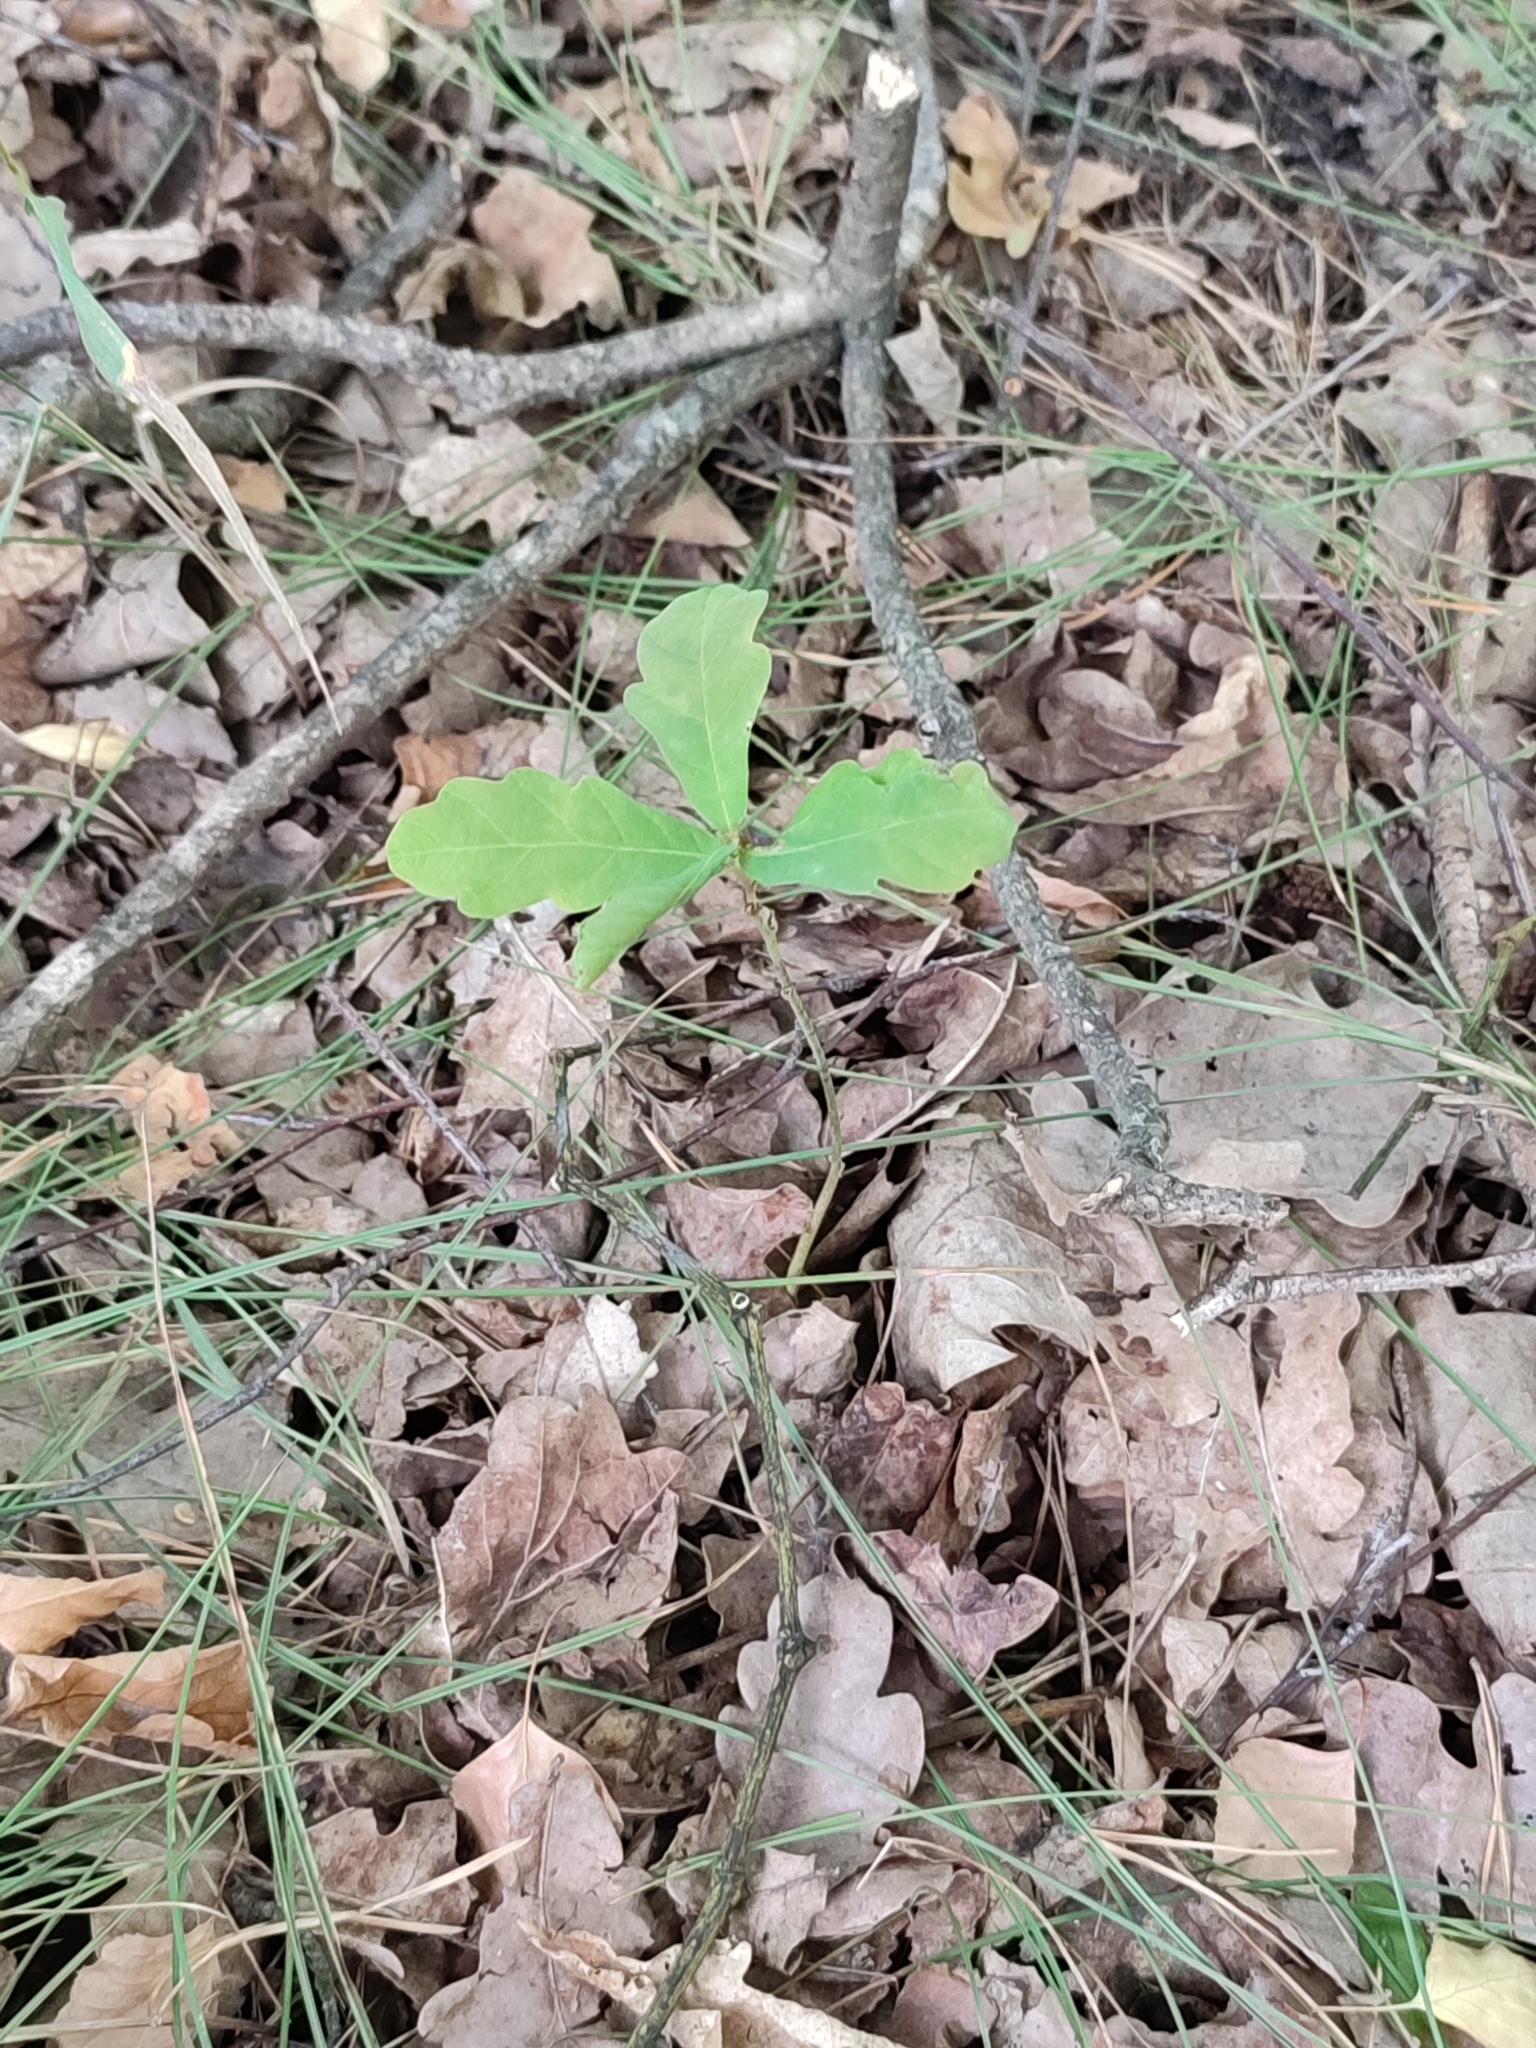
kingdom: Plantae
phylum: Tracheophyta
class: Magnoliopsida
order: Fagales
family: Fagaceae
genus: Quercus
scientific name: Quercus robur
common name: Pedunculate oak
